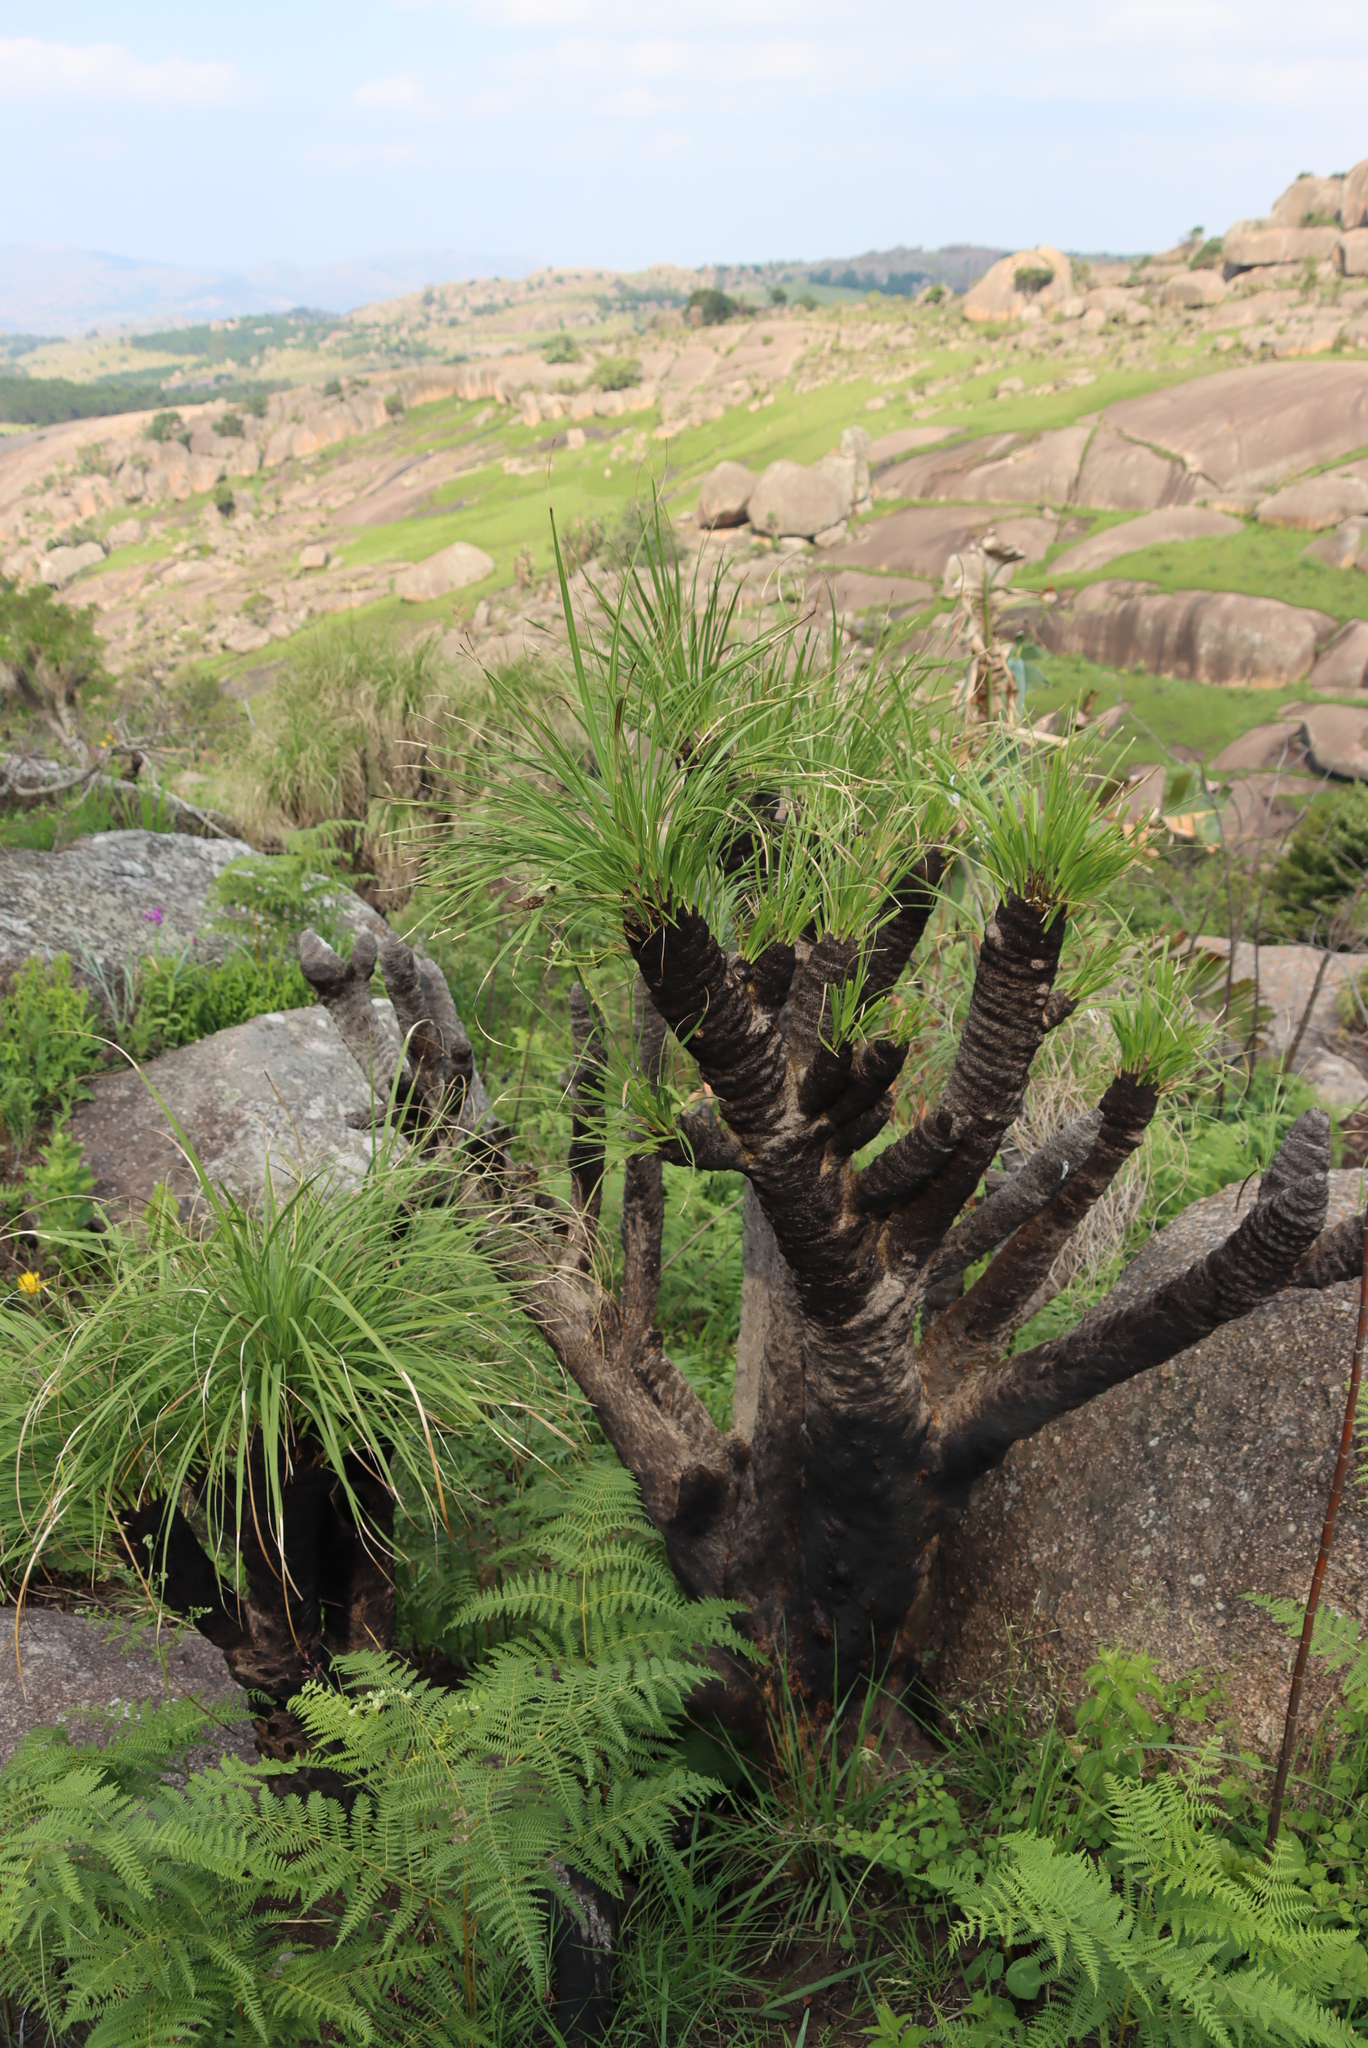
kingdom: Plantae
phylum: Tracheophyta
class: Liliopsida
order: Pandanales
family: Velloziaceae
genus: Xerophyta
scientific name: Xerophyta retinervis
